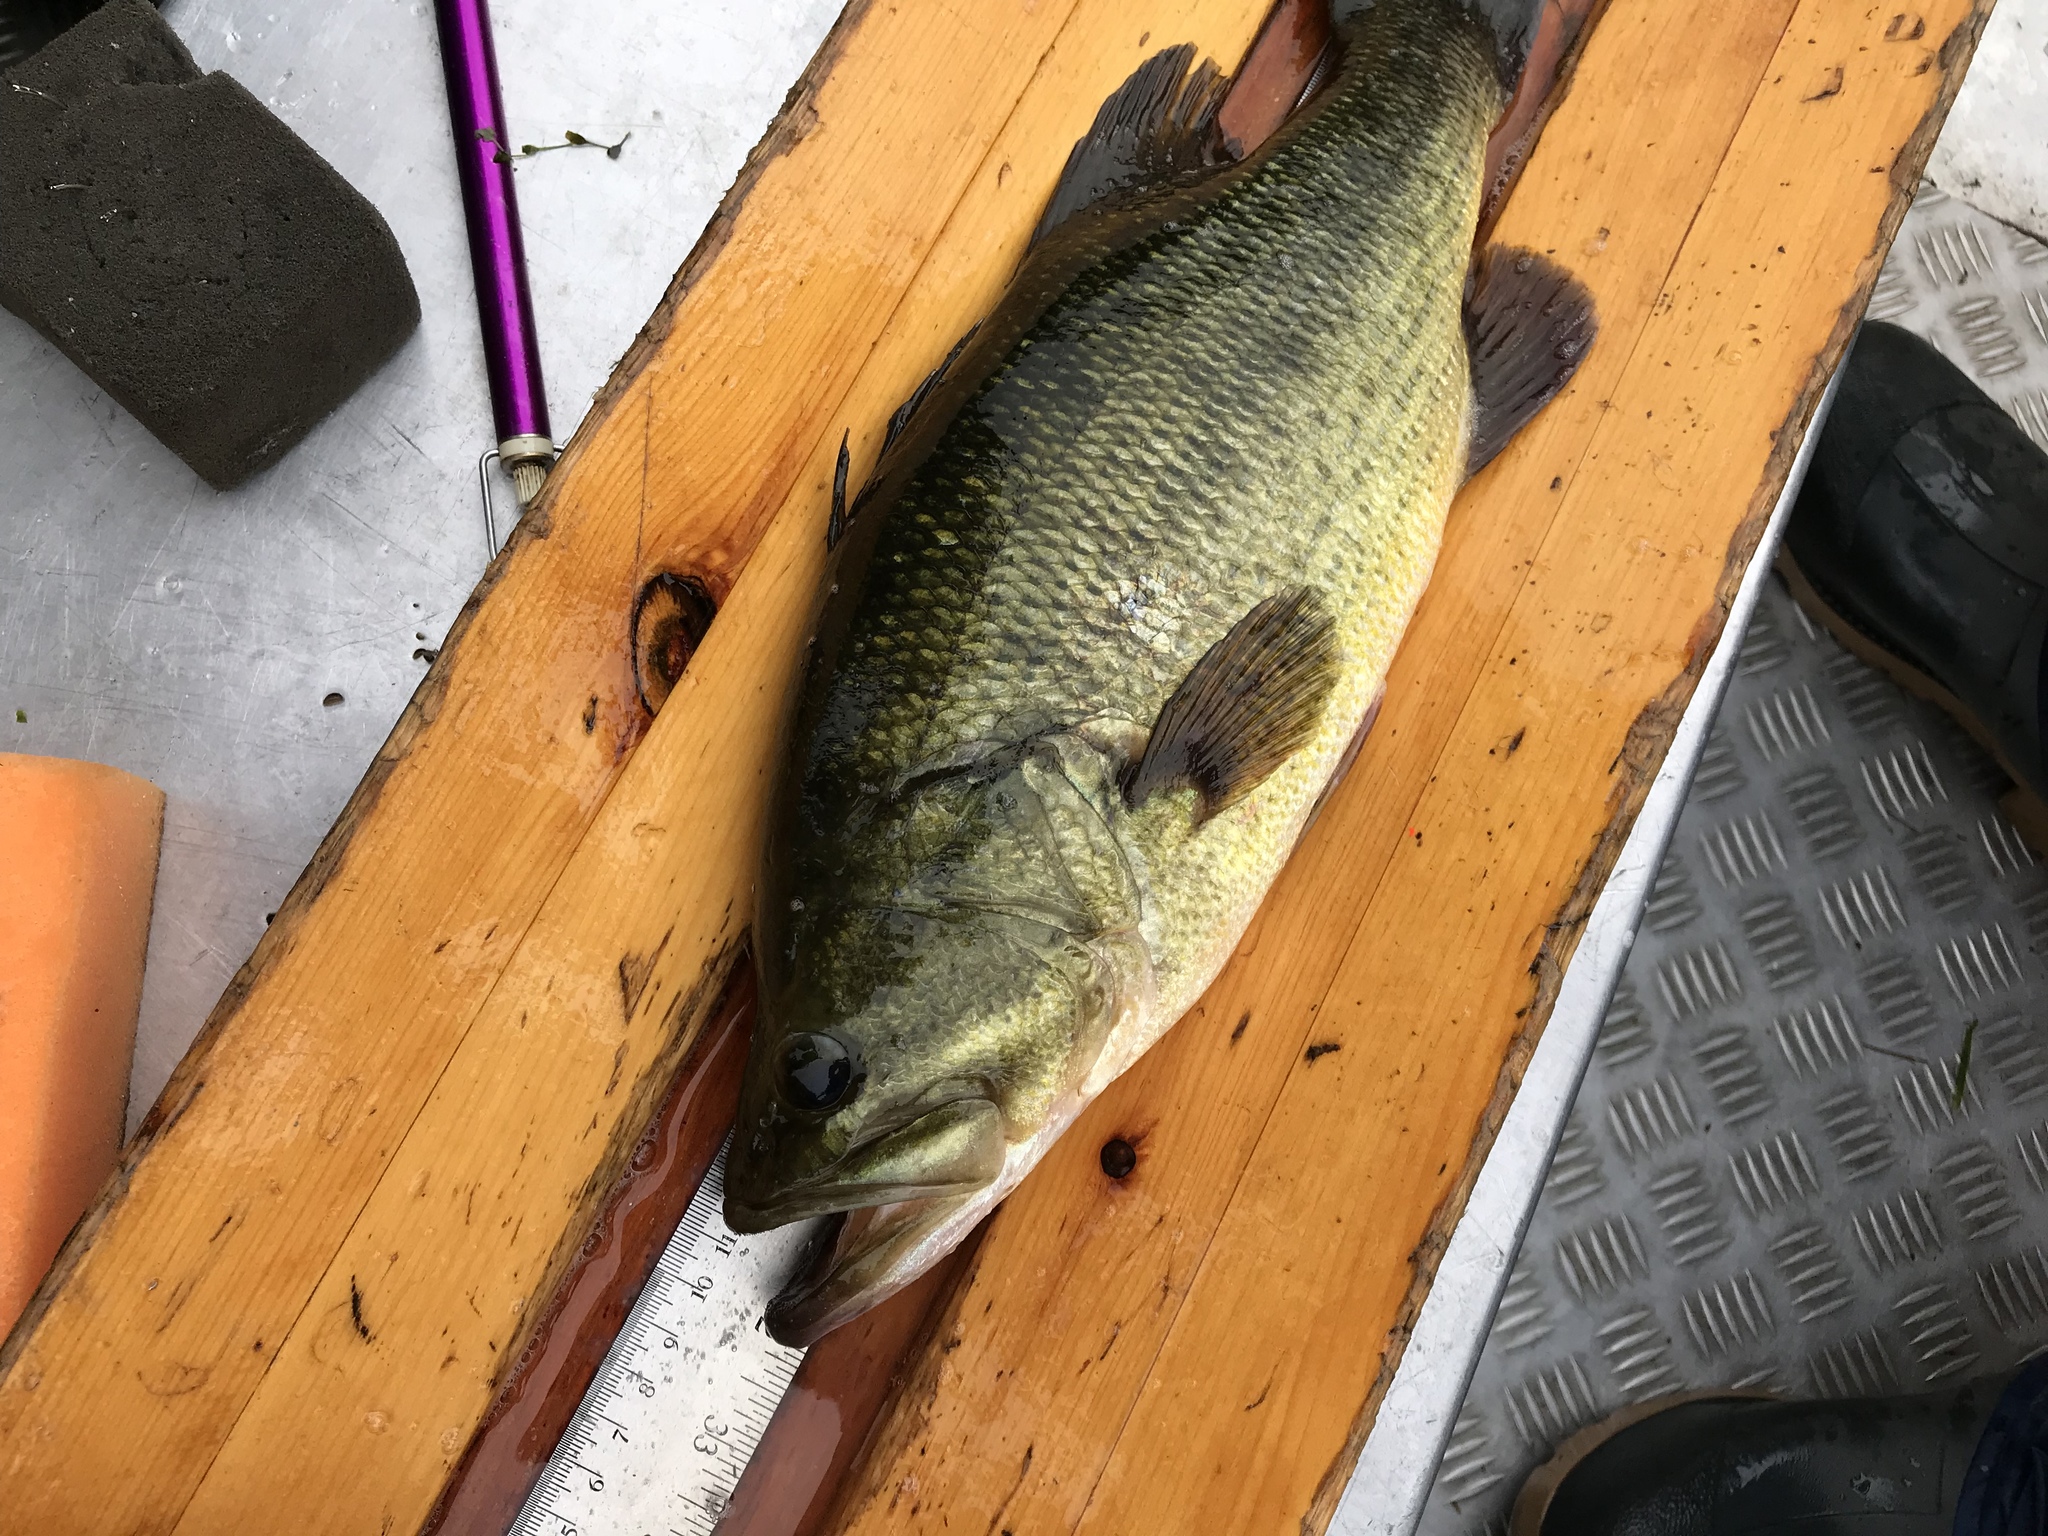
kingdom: Animalia
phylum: Chordata
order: Perciformes
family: Centrarchidae
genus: Micropterus
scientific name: Micropterus
